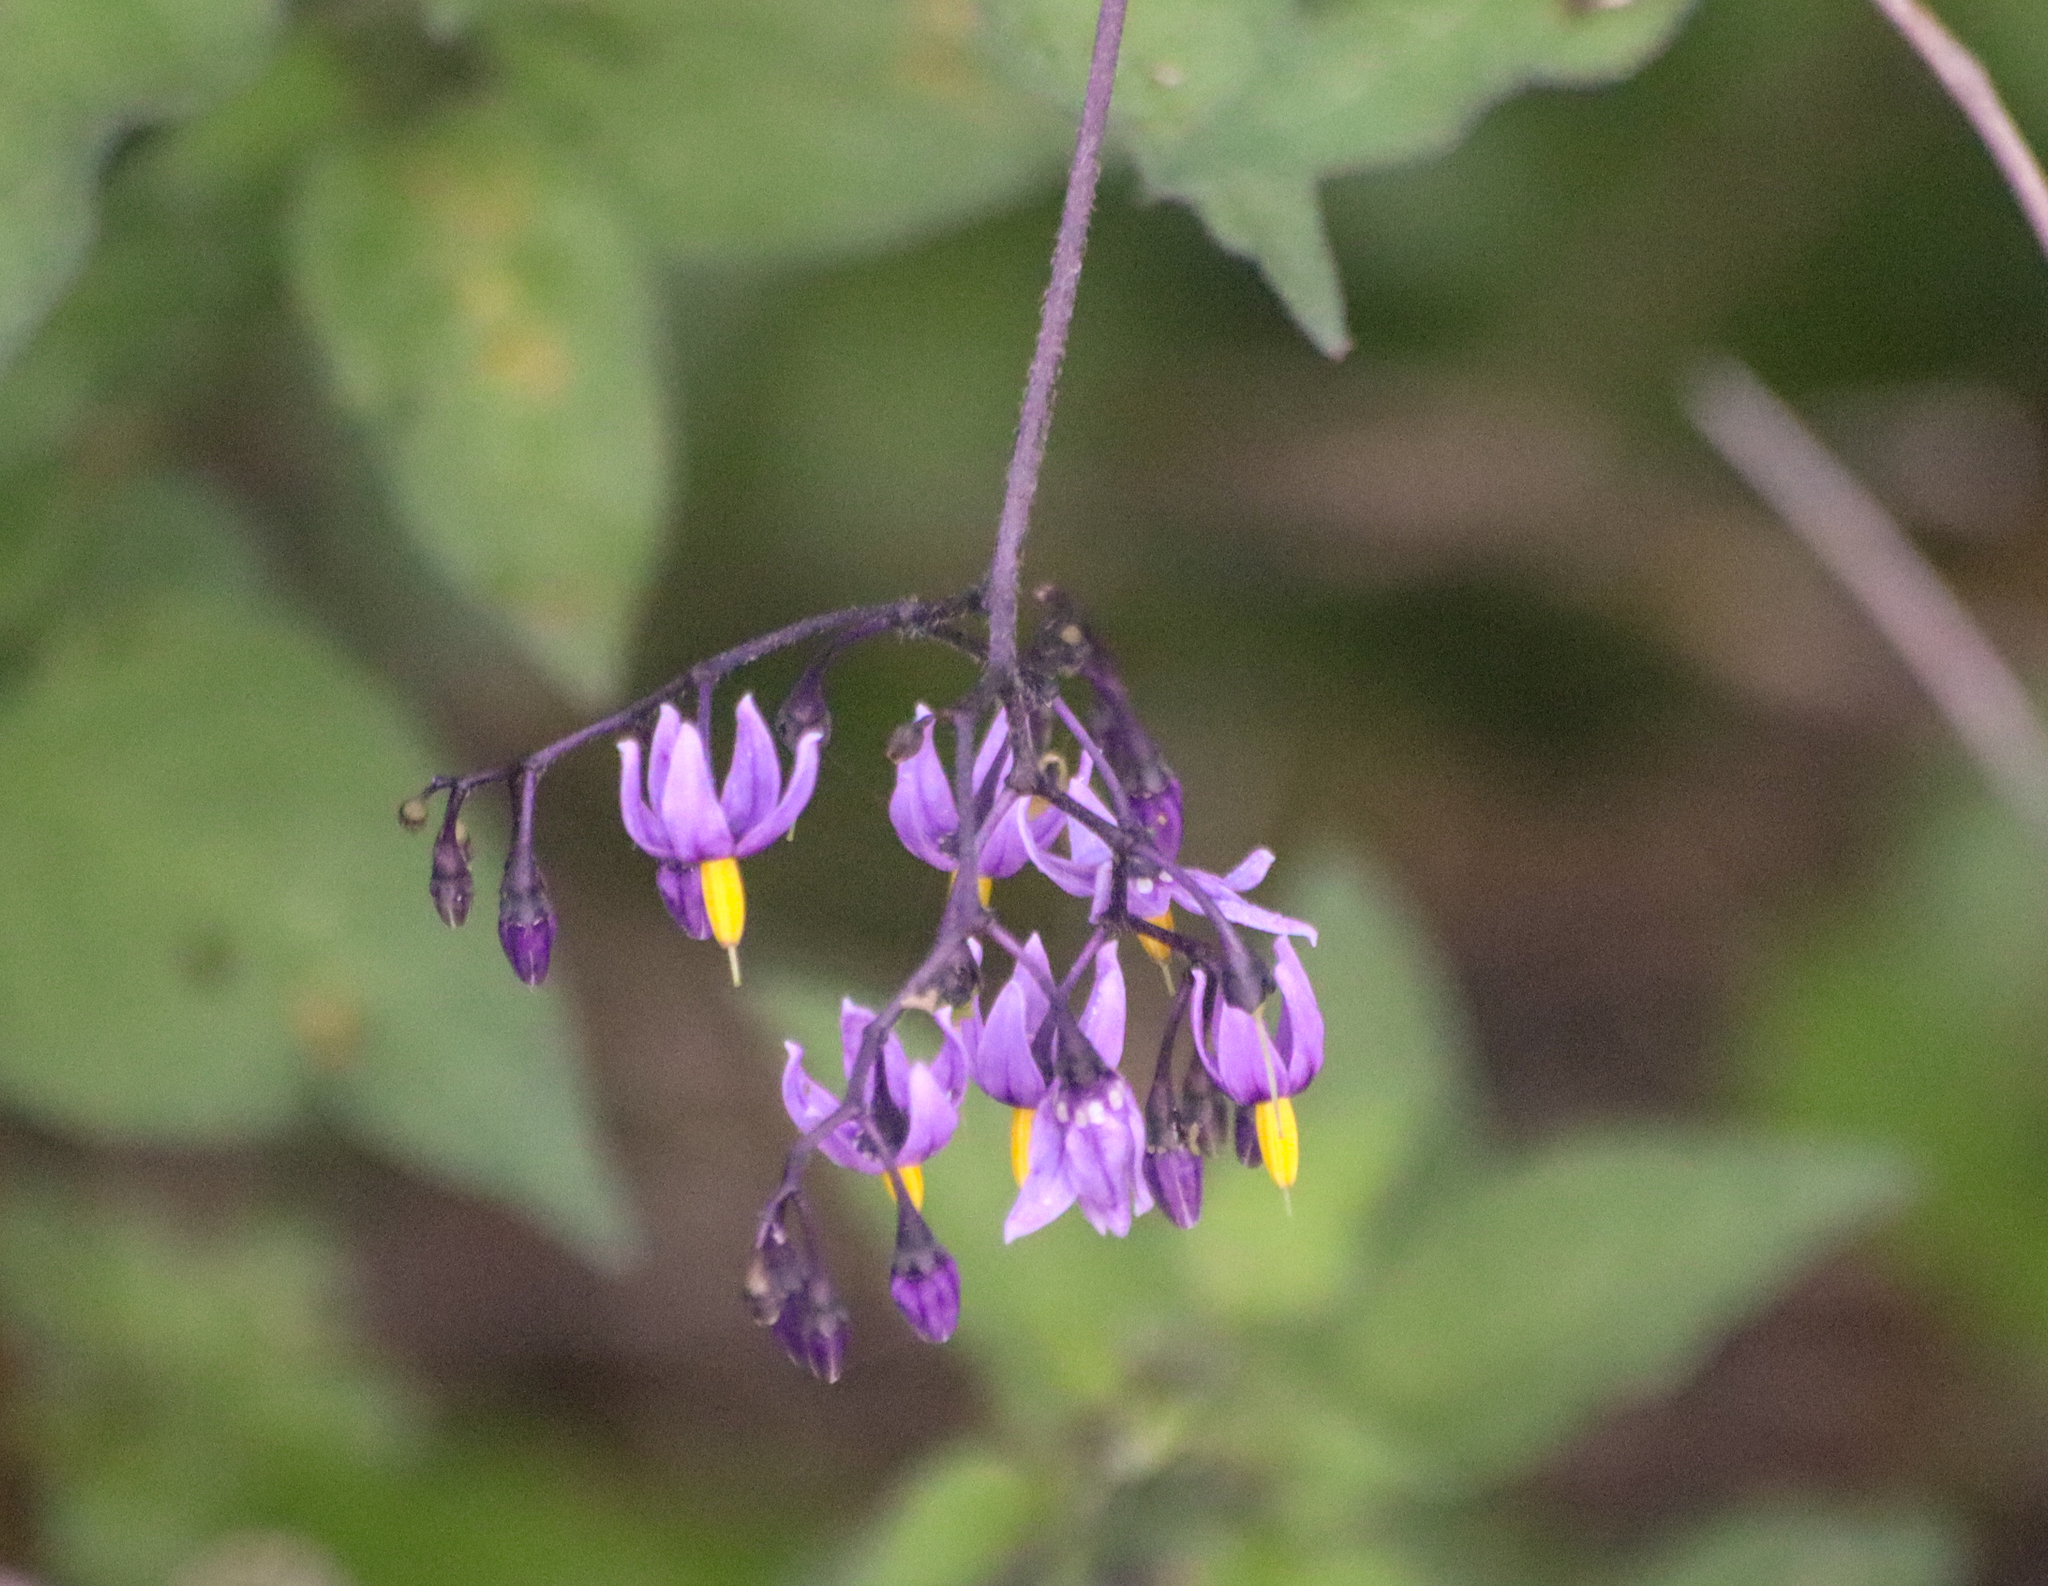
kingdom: Plantae
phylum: Tracheophyta
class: Magnoliopsida
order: Solanales
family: Solanaceae
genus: Solanum
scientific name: Solanum dulcamara
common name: Climbing nightshade
